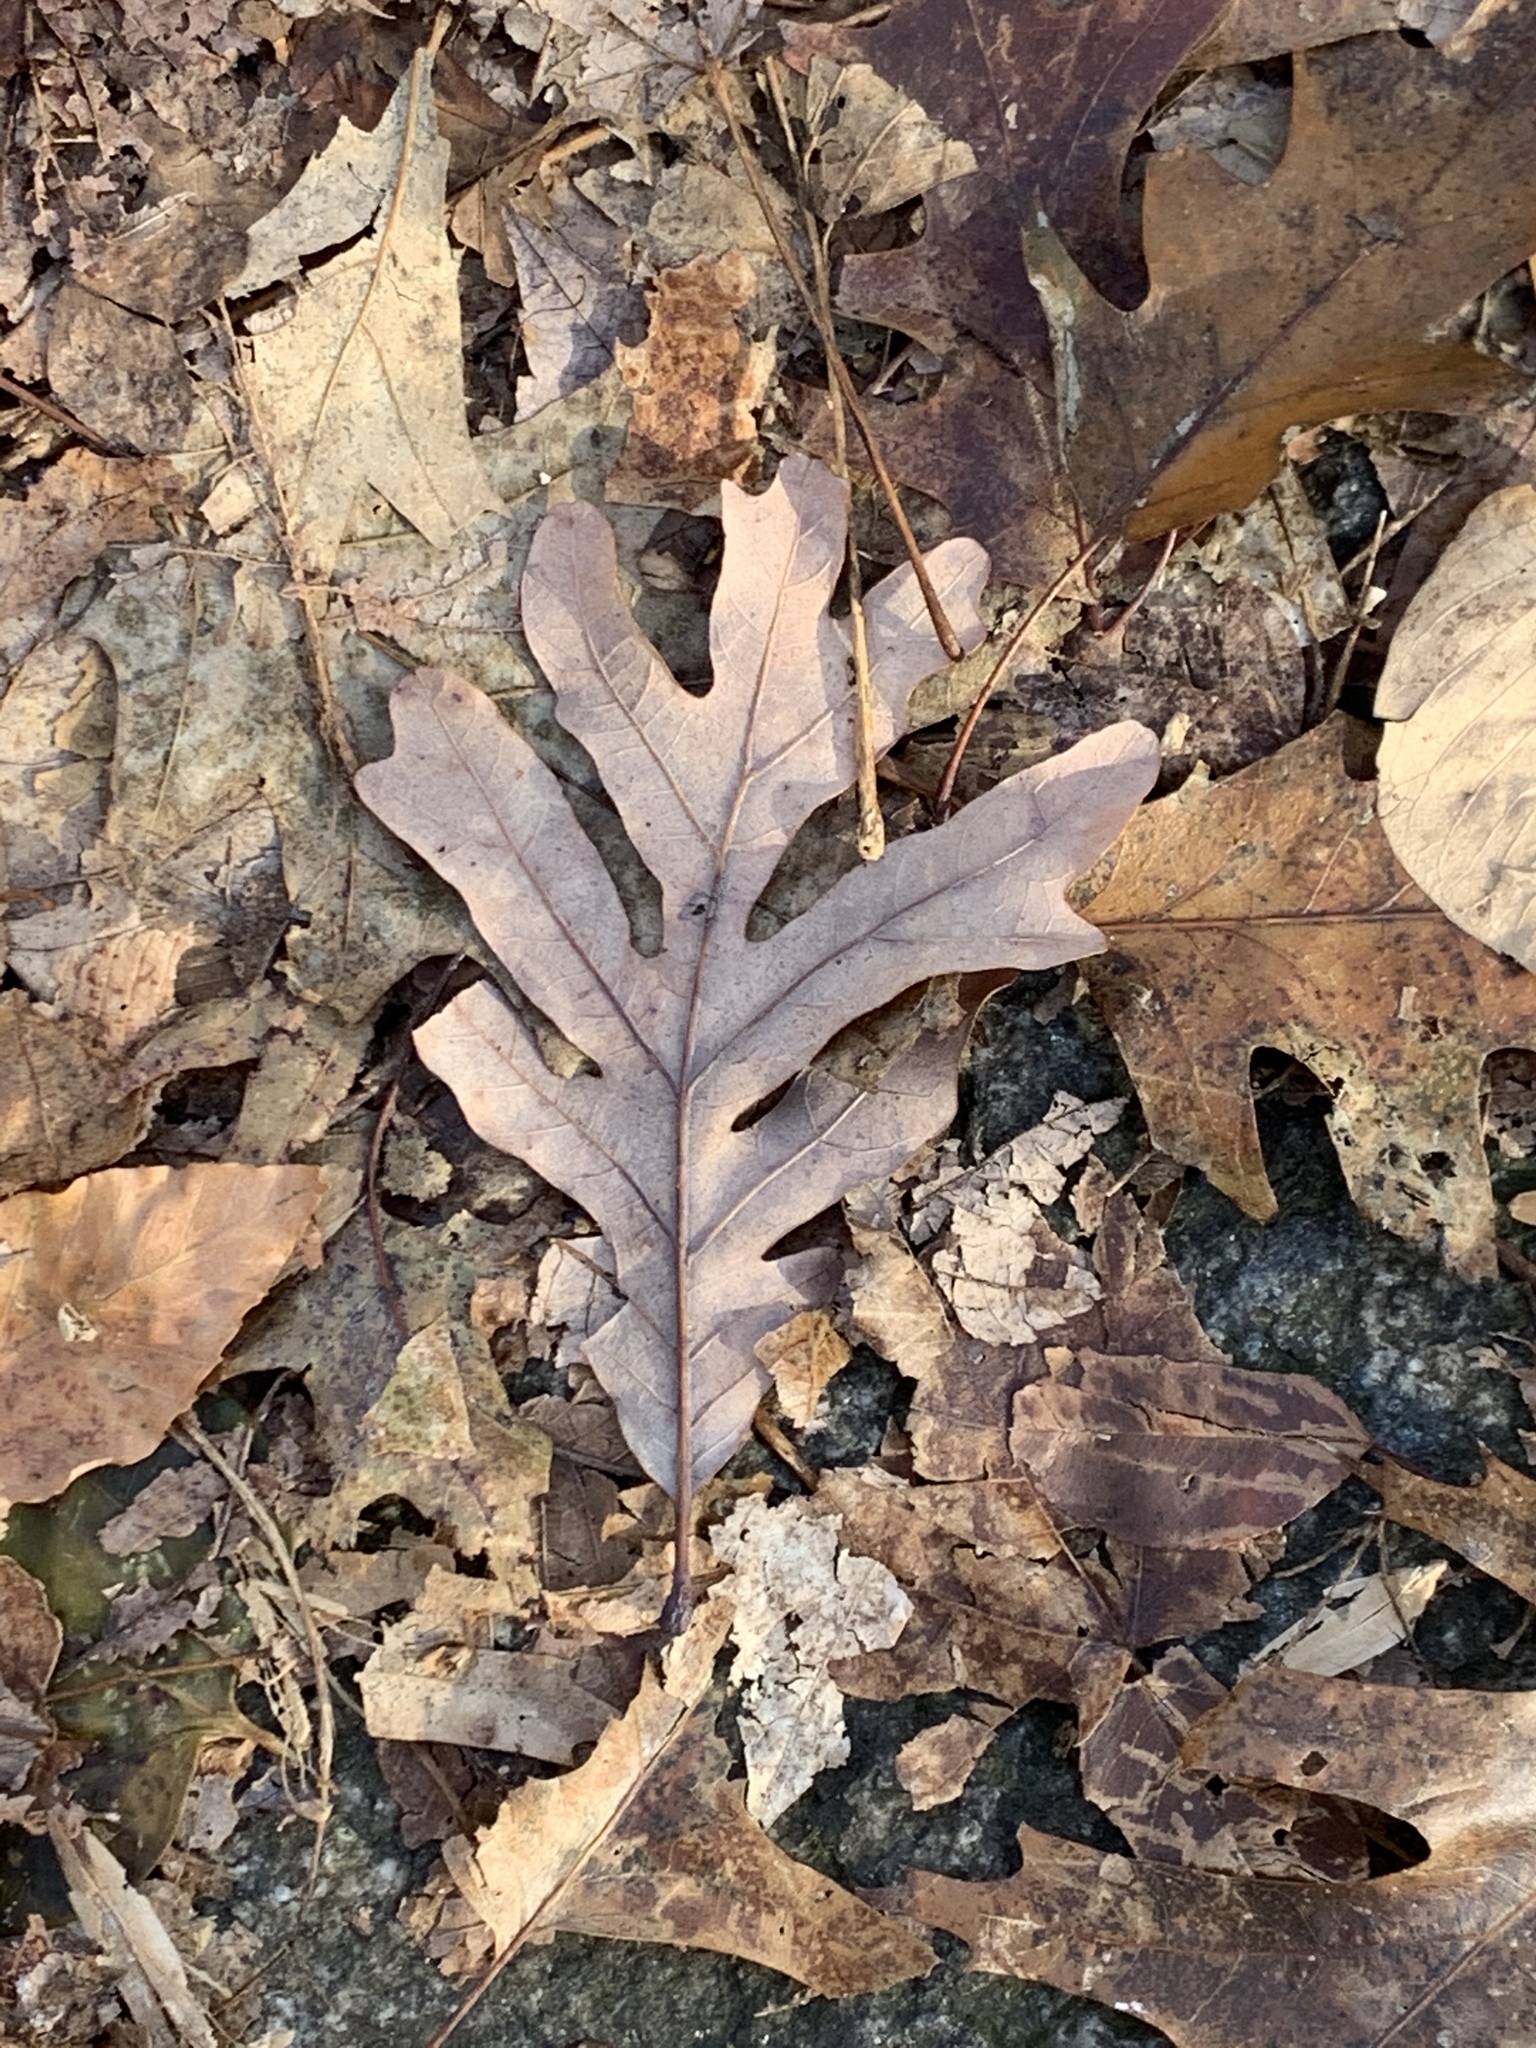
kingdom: Plantae
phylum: Tracheophyta
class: Magnoliopsida
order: Fagales
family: Fagaceae
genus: Quercus
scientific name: Quercus alba
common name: White oak
